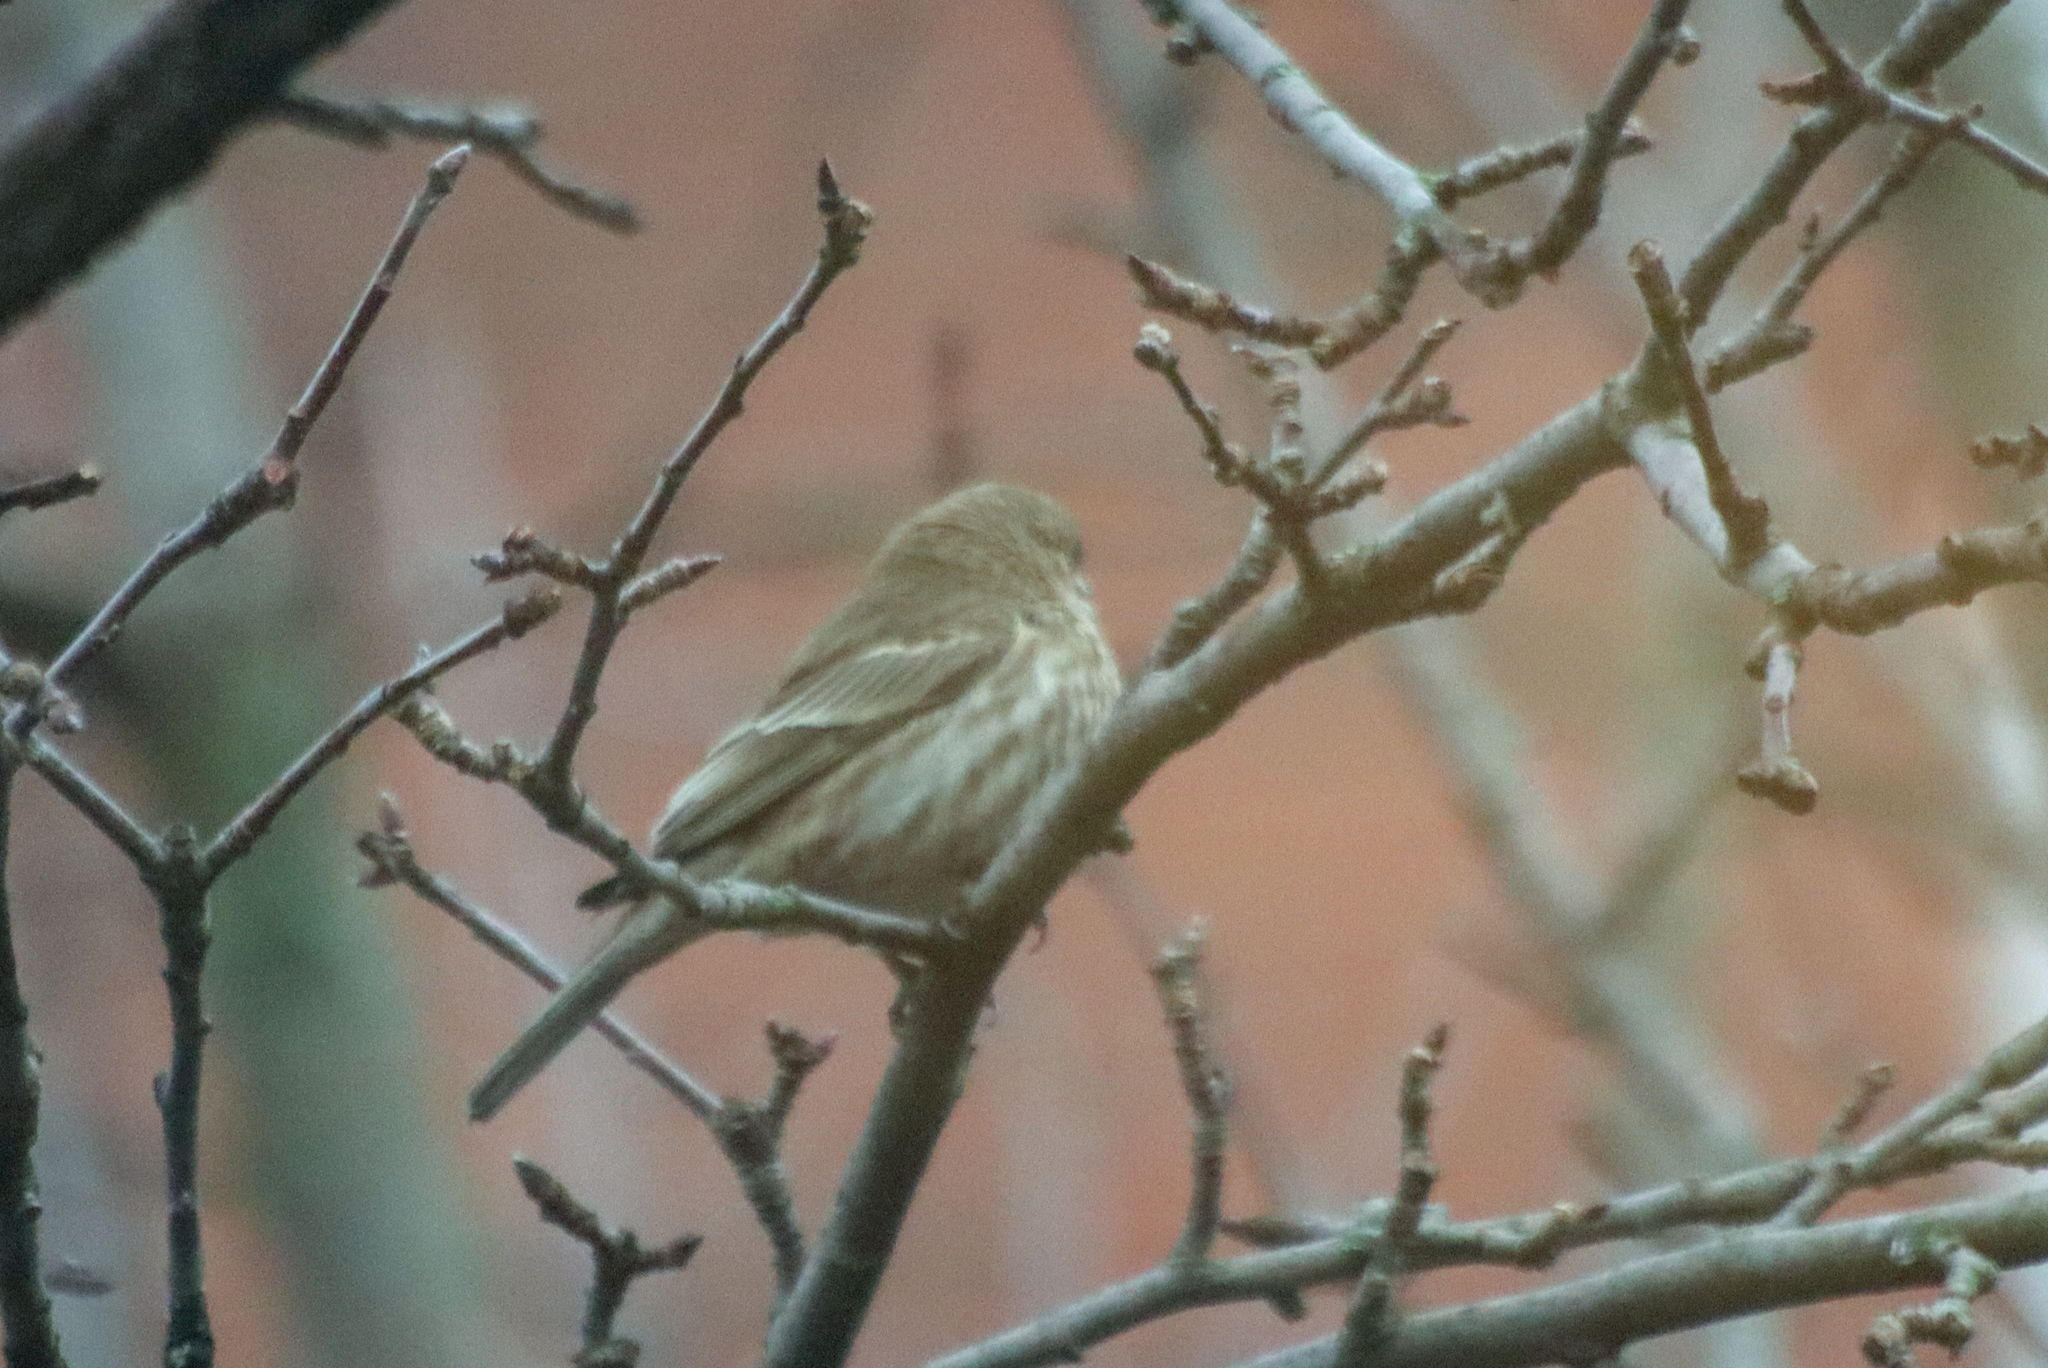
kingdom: Animalia
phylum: Chordata
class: Aves
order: Passeriformes
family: Fringillidae
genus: Haemorhous
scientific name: Haemorhous mexicanus
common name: House finch
